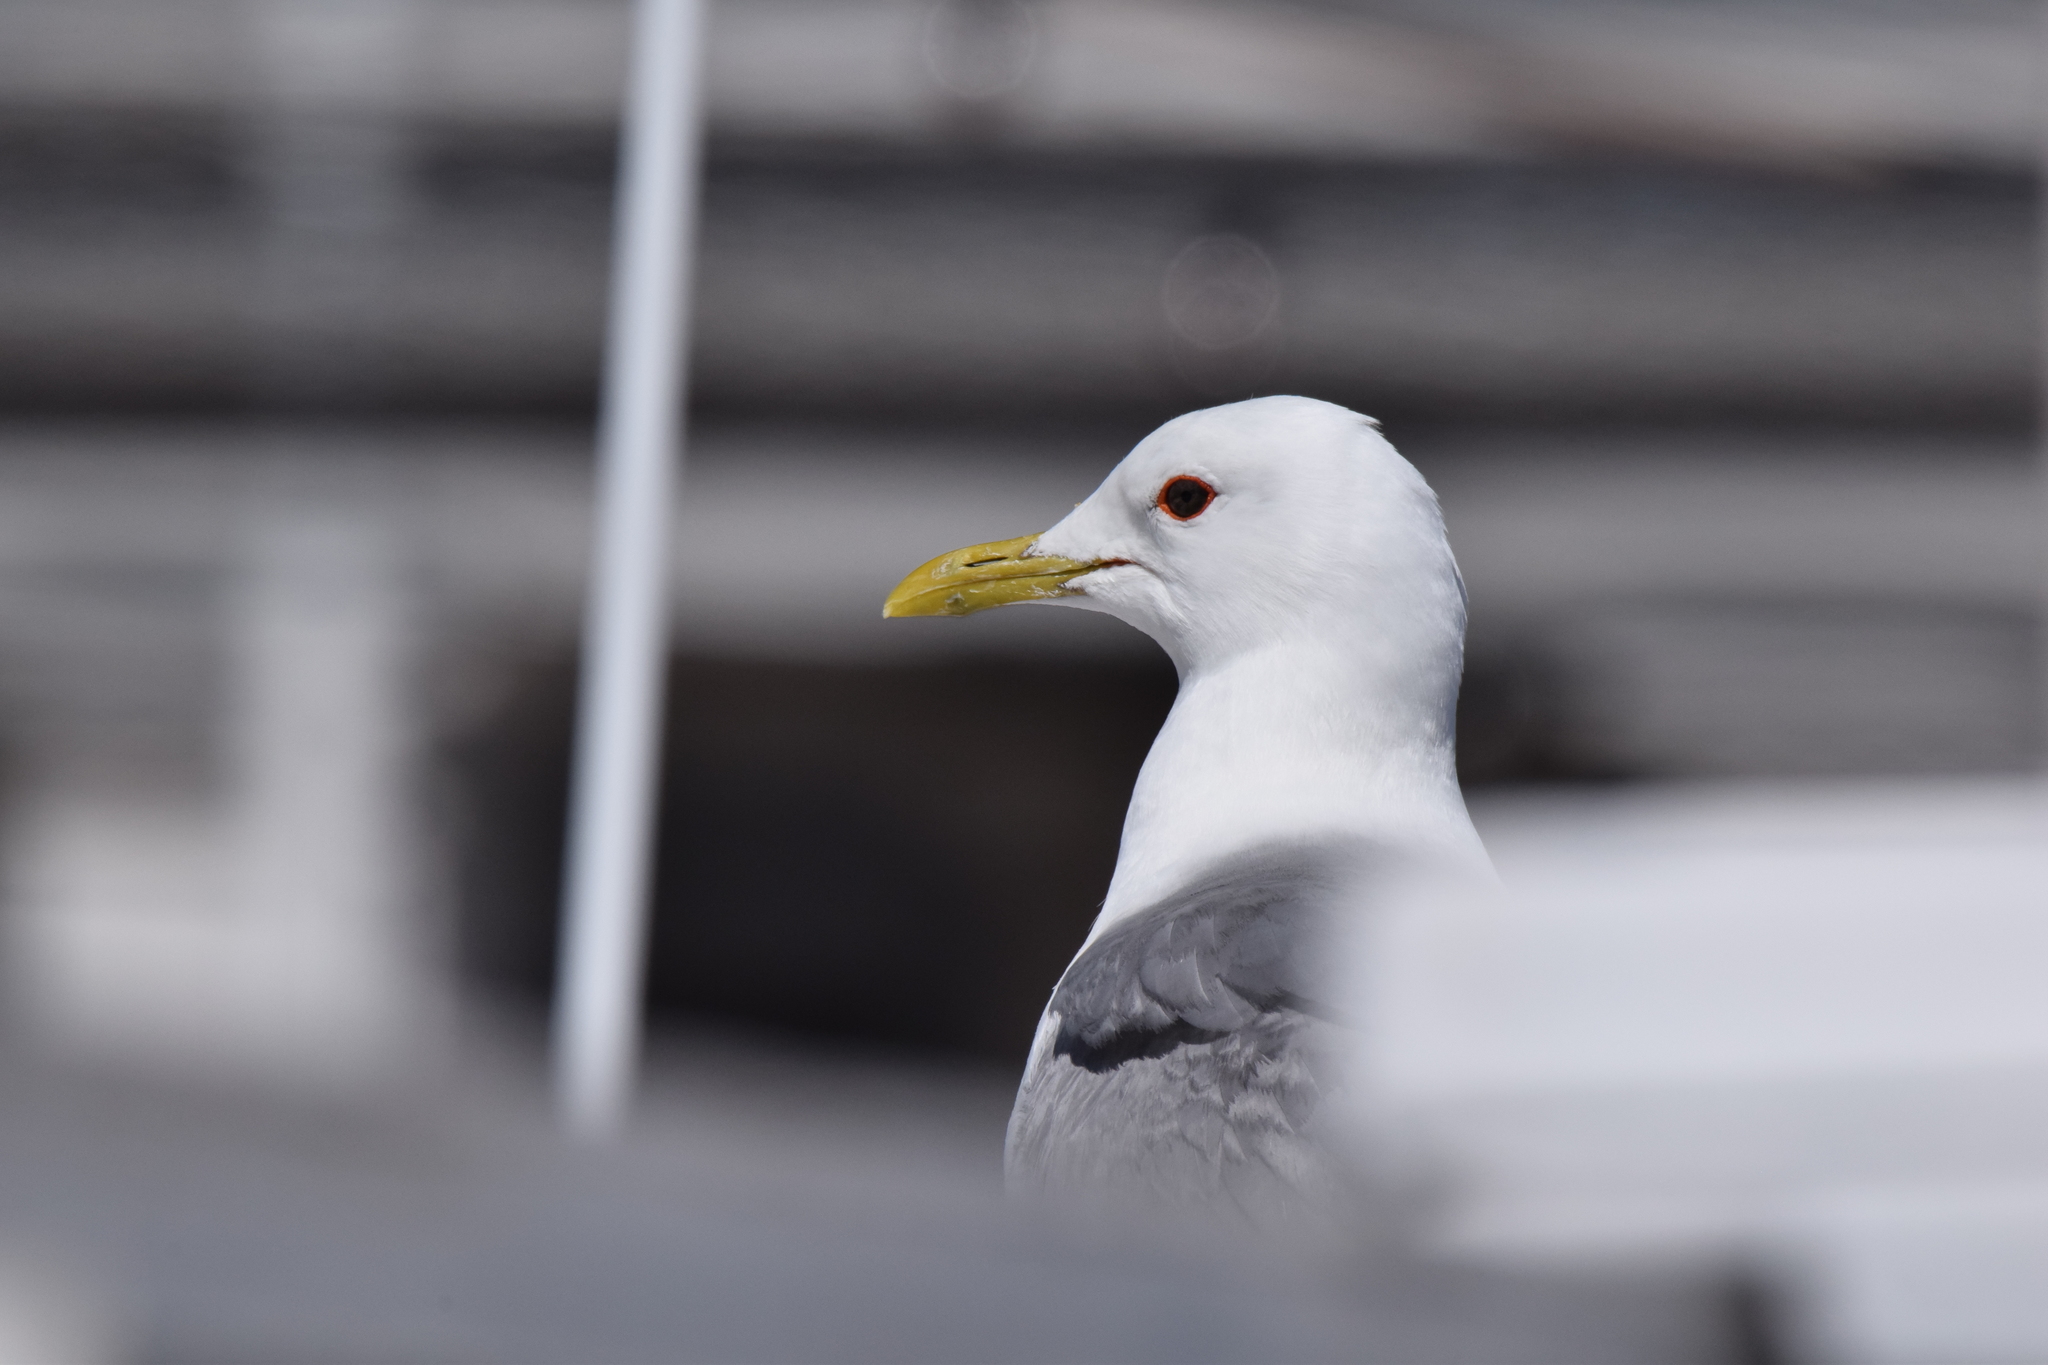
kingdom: Animalia
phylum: Chordata
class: Aves
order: Charadriiformes
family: Laridae
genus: Larus
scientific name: Larus canus
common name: Mew gull
